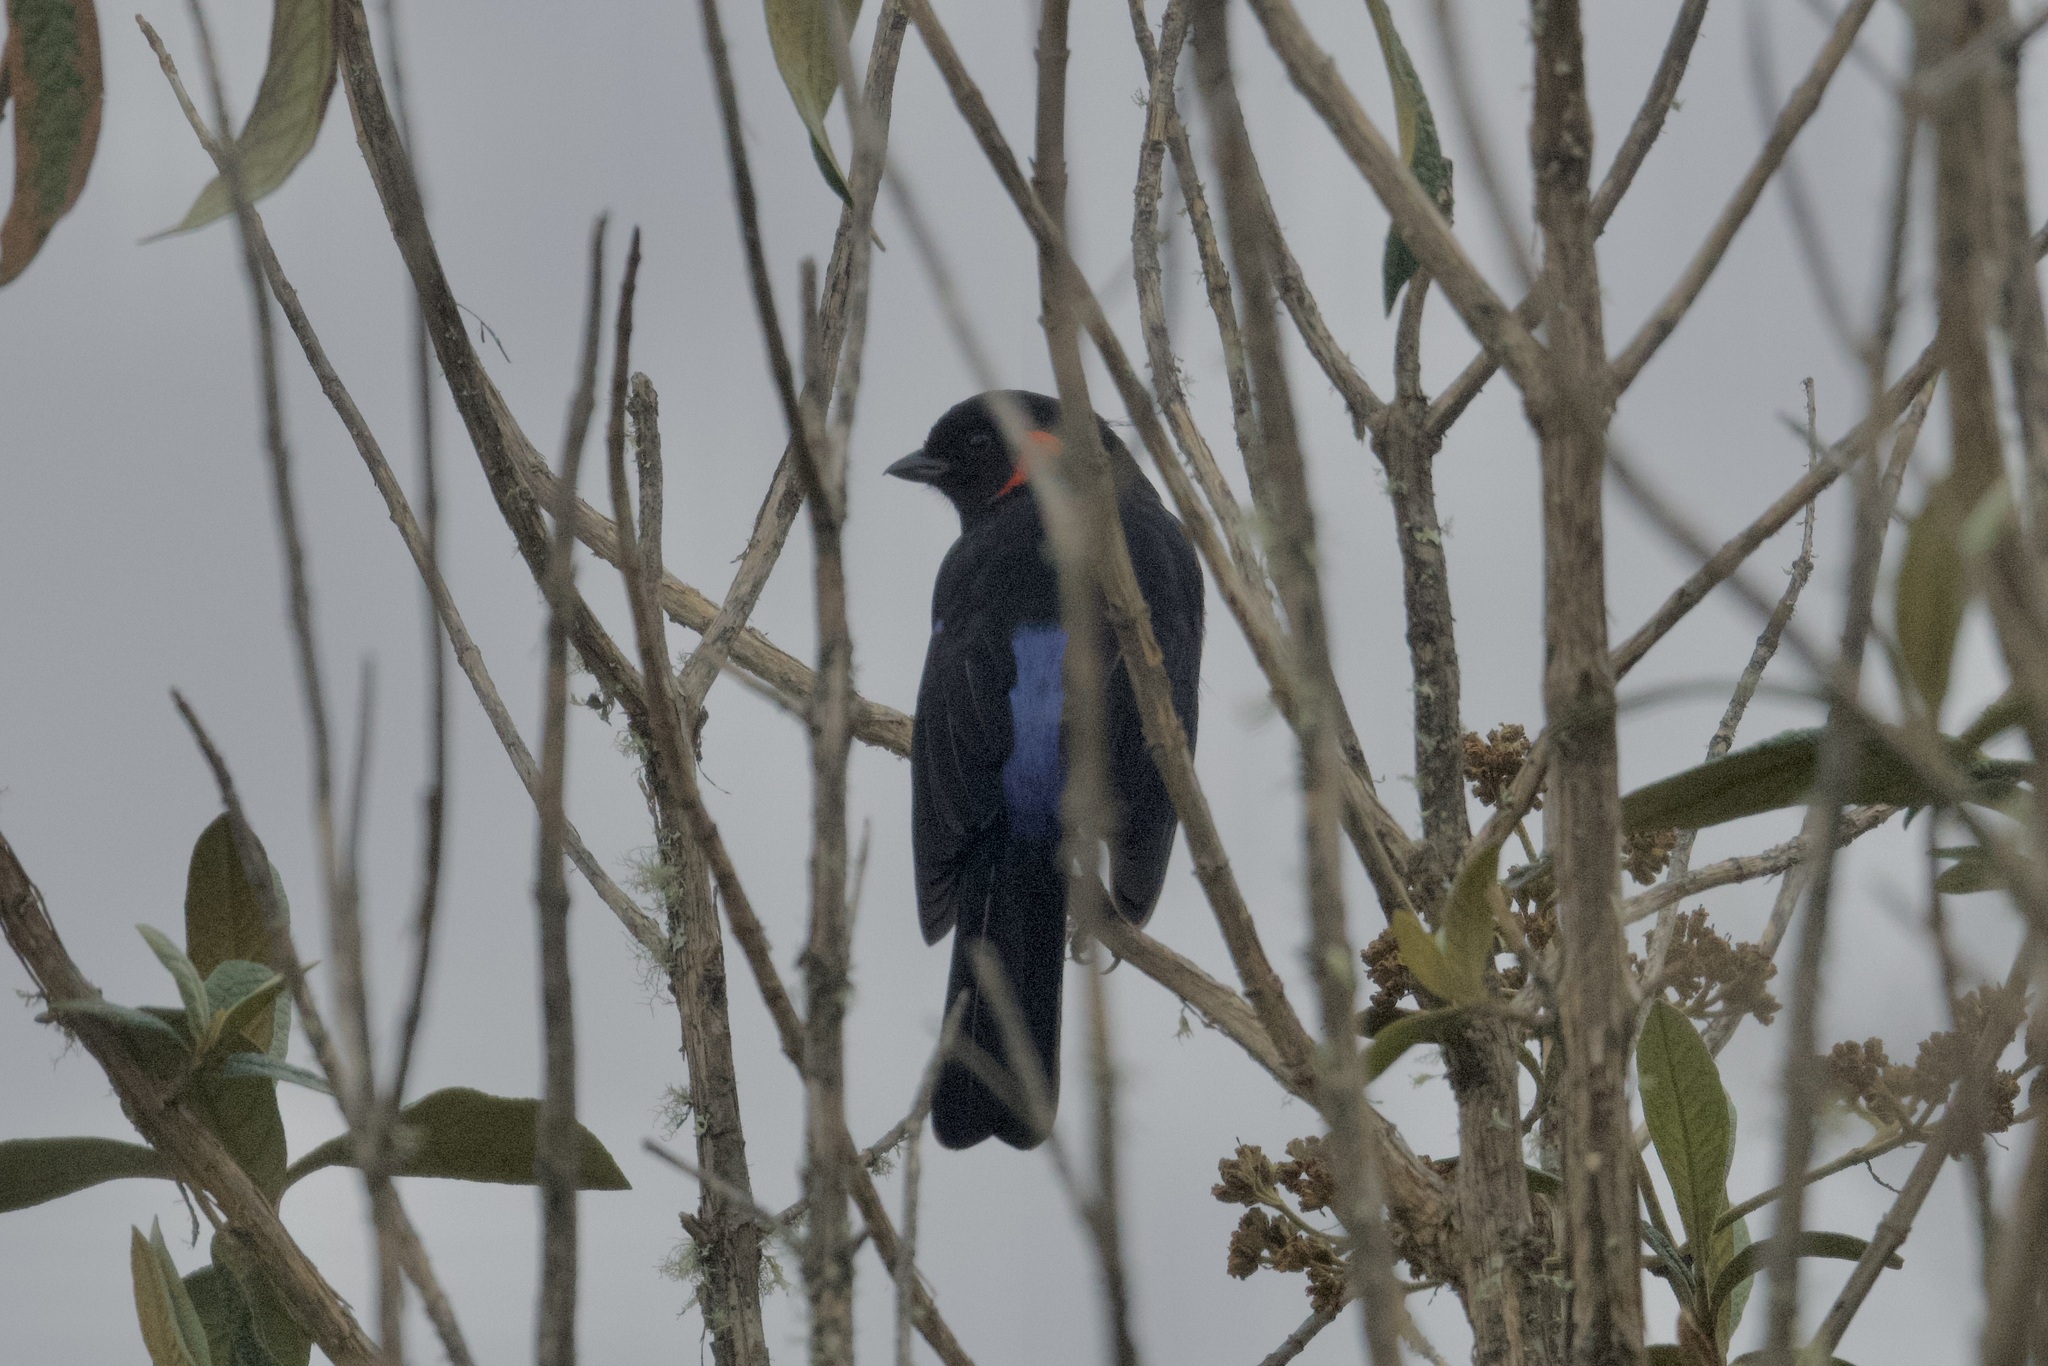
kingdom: Animalia
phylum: Chordata
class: Aves
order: Passeriformes
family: Thraupidae
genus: Anisognathus
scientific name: Anisognathus igniventris
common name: Scarlet-bellied mountain tanager
